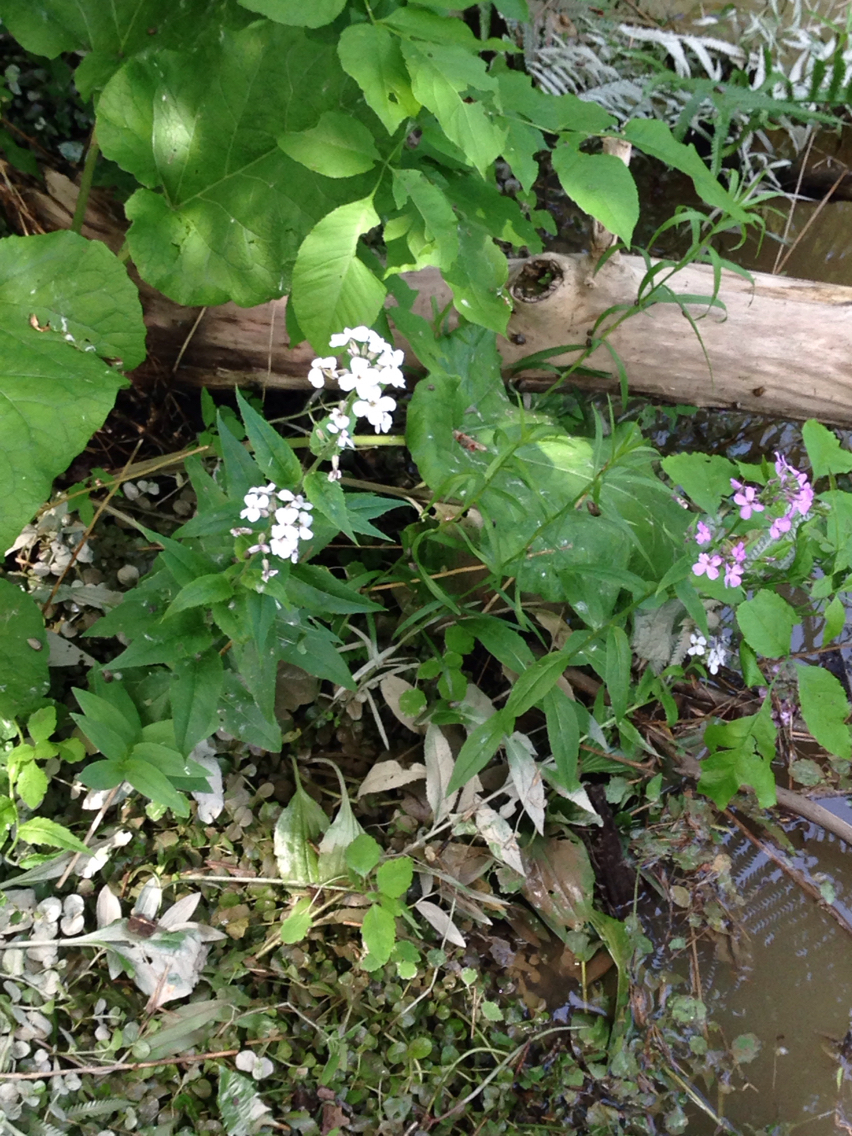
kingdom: Plantae
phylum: Tracheophyta
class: Magnoliopsida
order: Brassicales
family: Brassicaceae
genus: Hesperis
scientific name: Hesperis matronalis
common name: Dame's-violet
